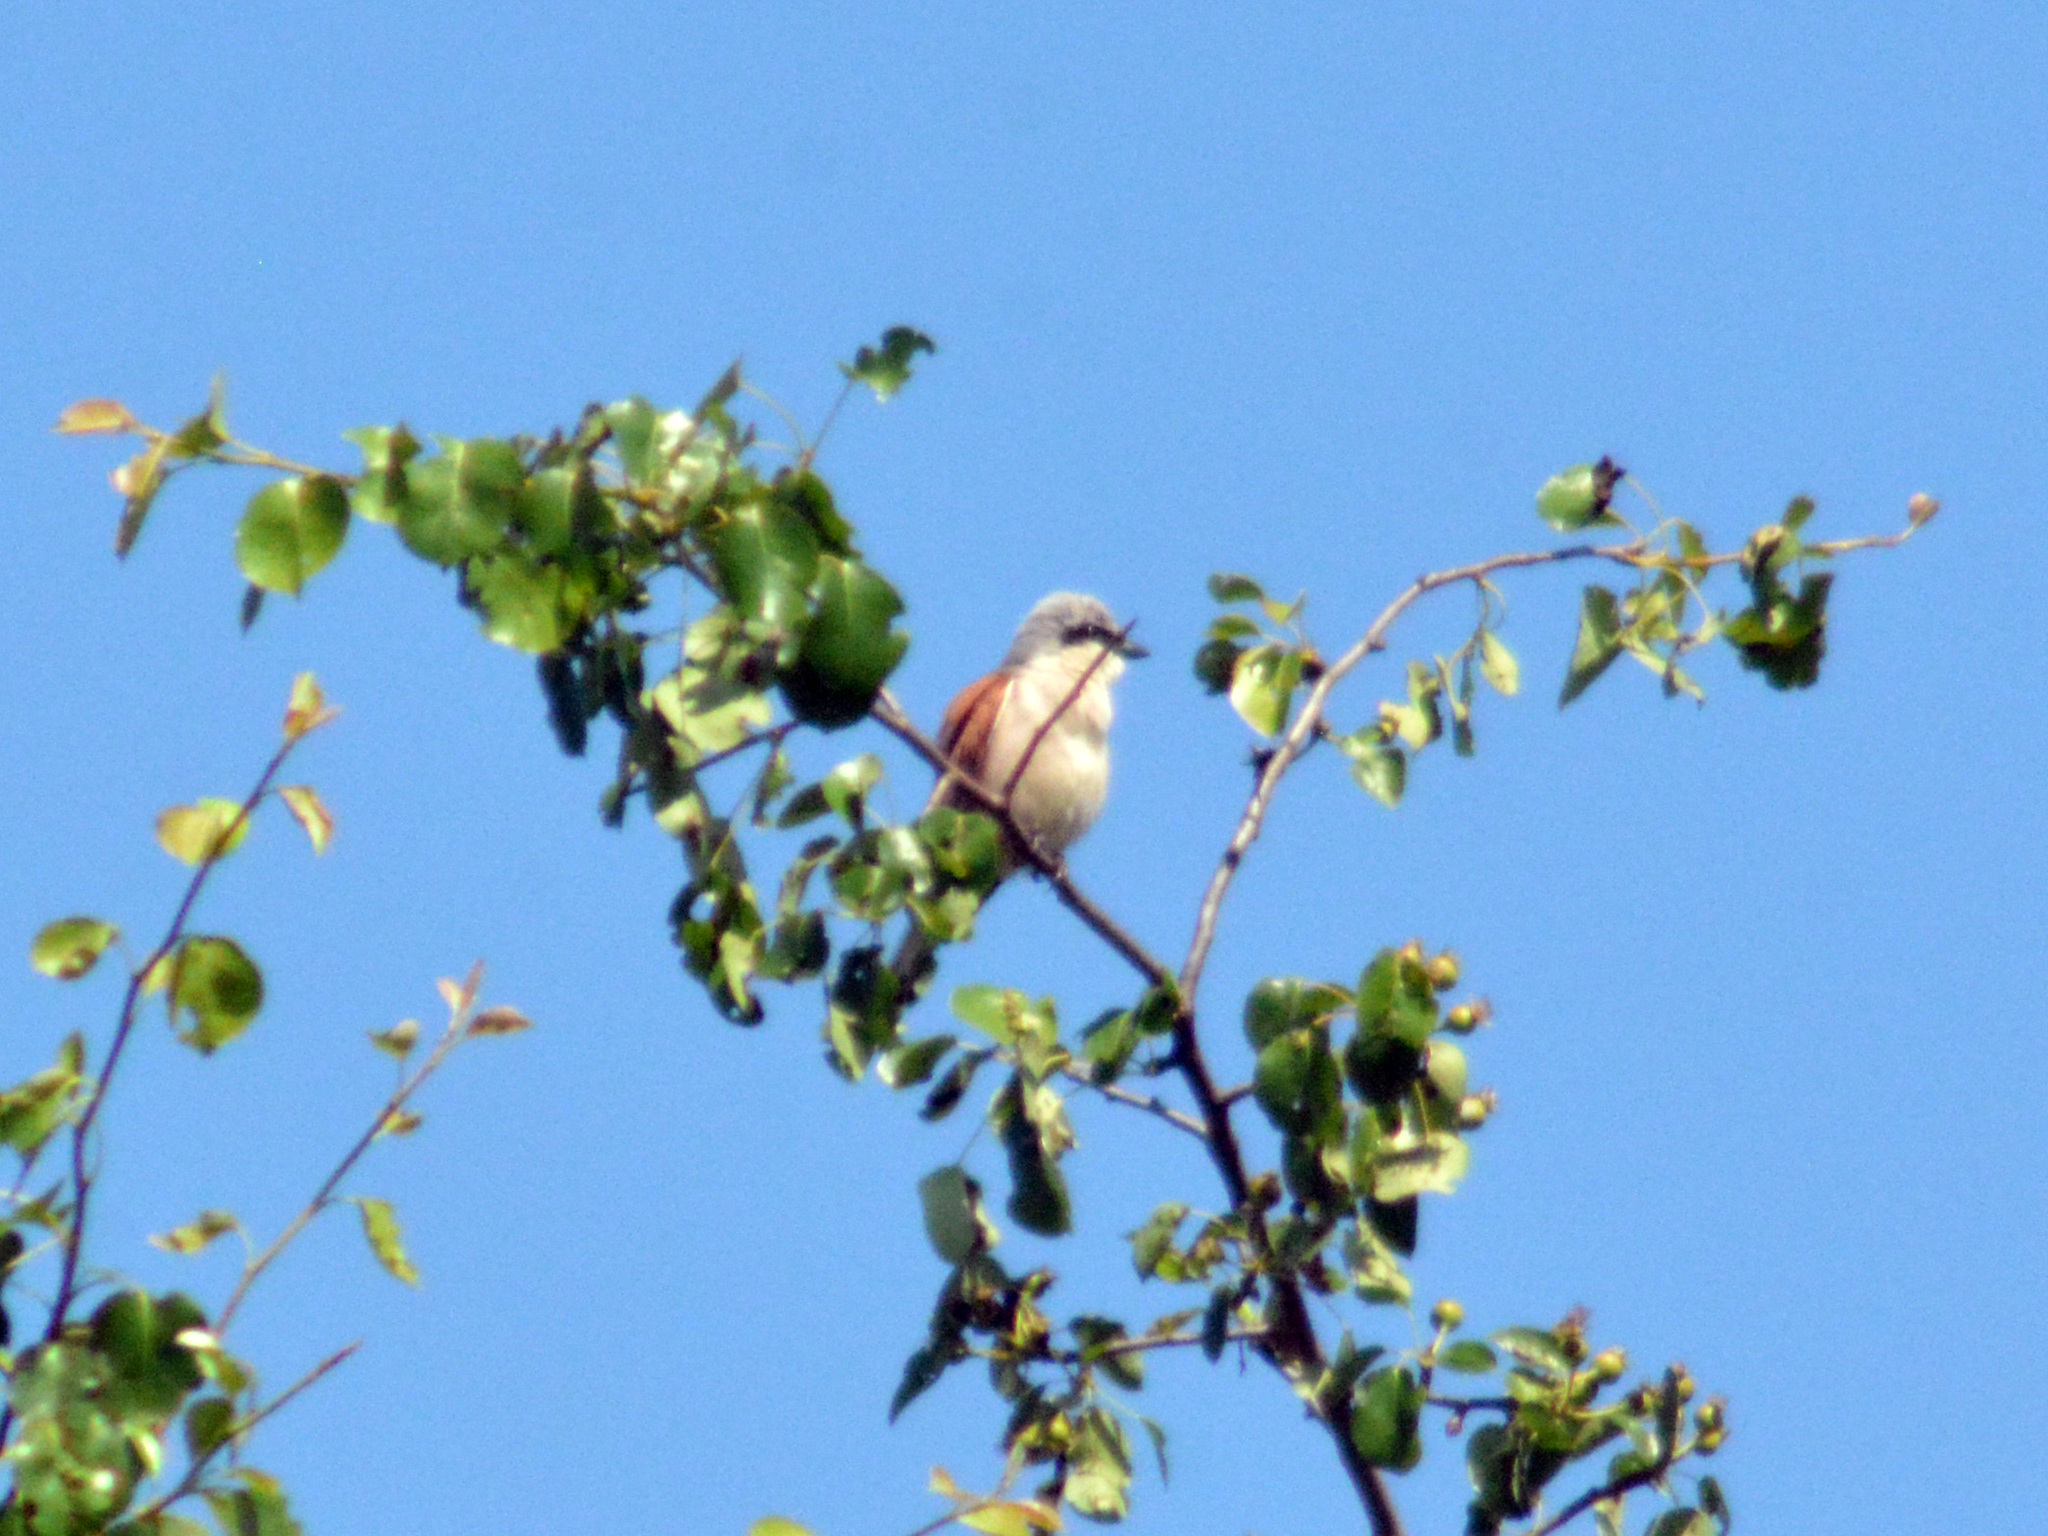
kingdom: Animalia
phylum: Chordata
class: Aves
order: Passeriformes
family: Laniidae
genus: Lanius
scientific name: Lanius collurio
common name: Red-backed shrike
